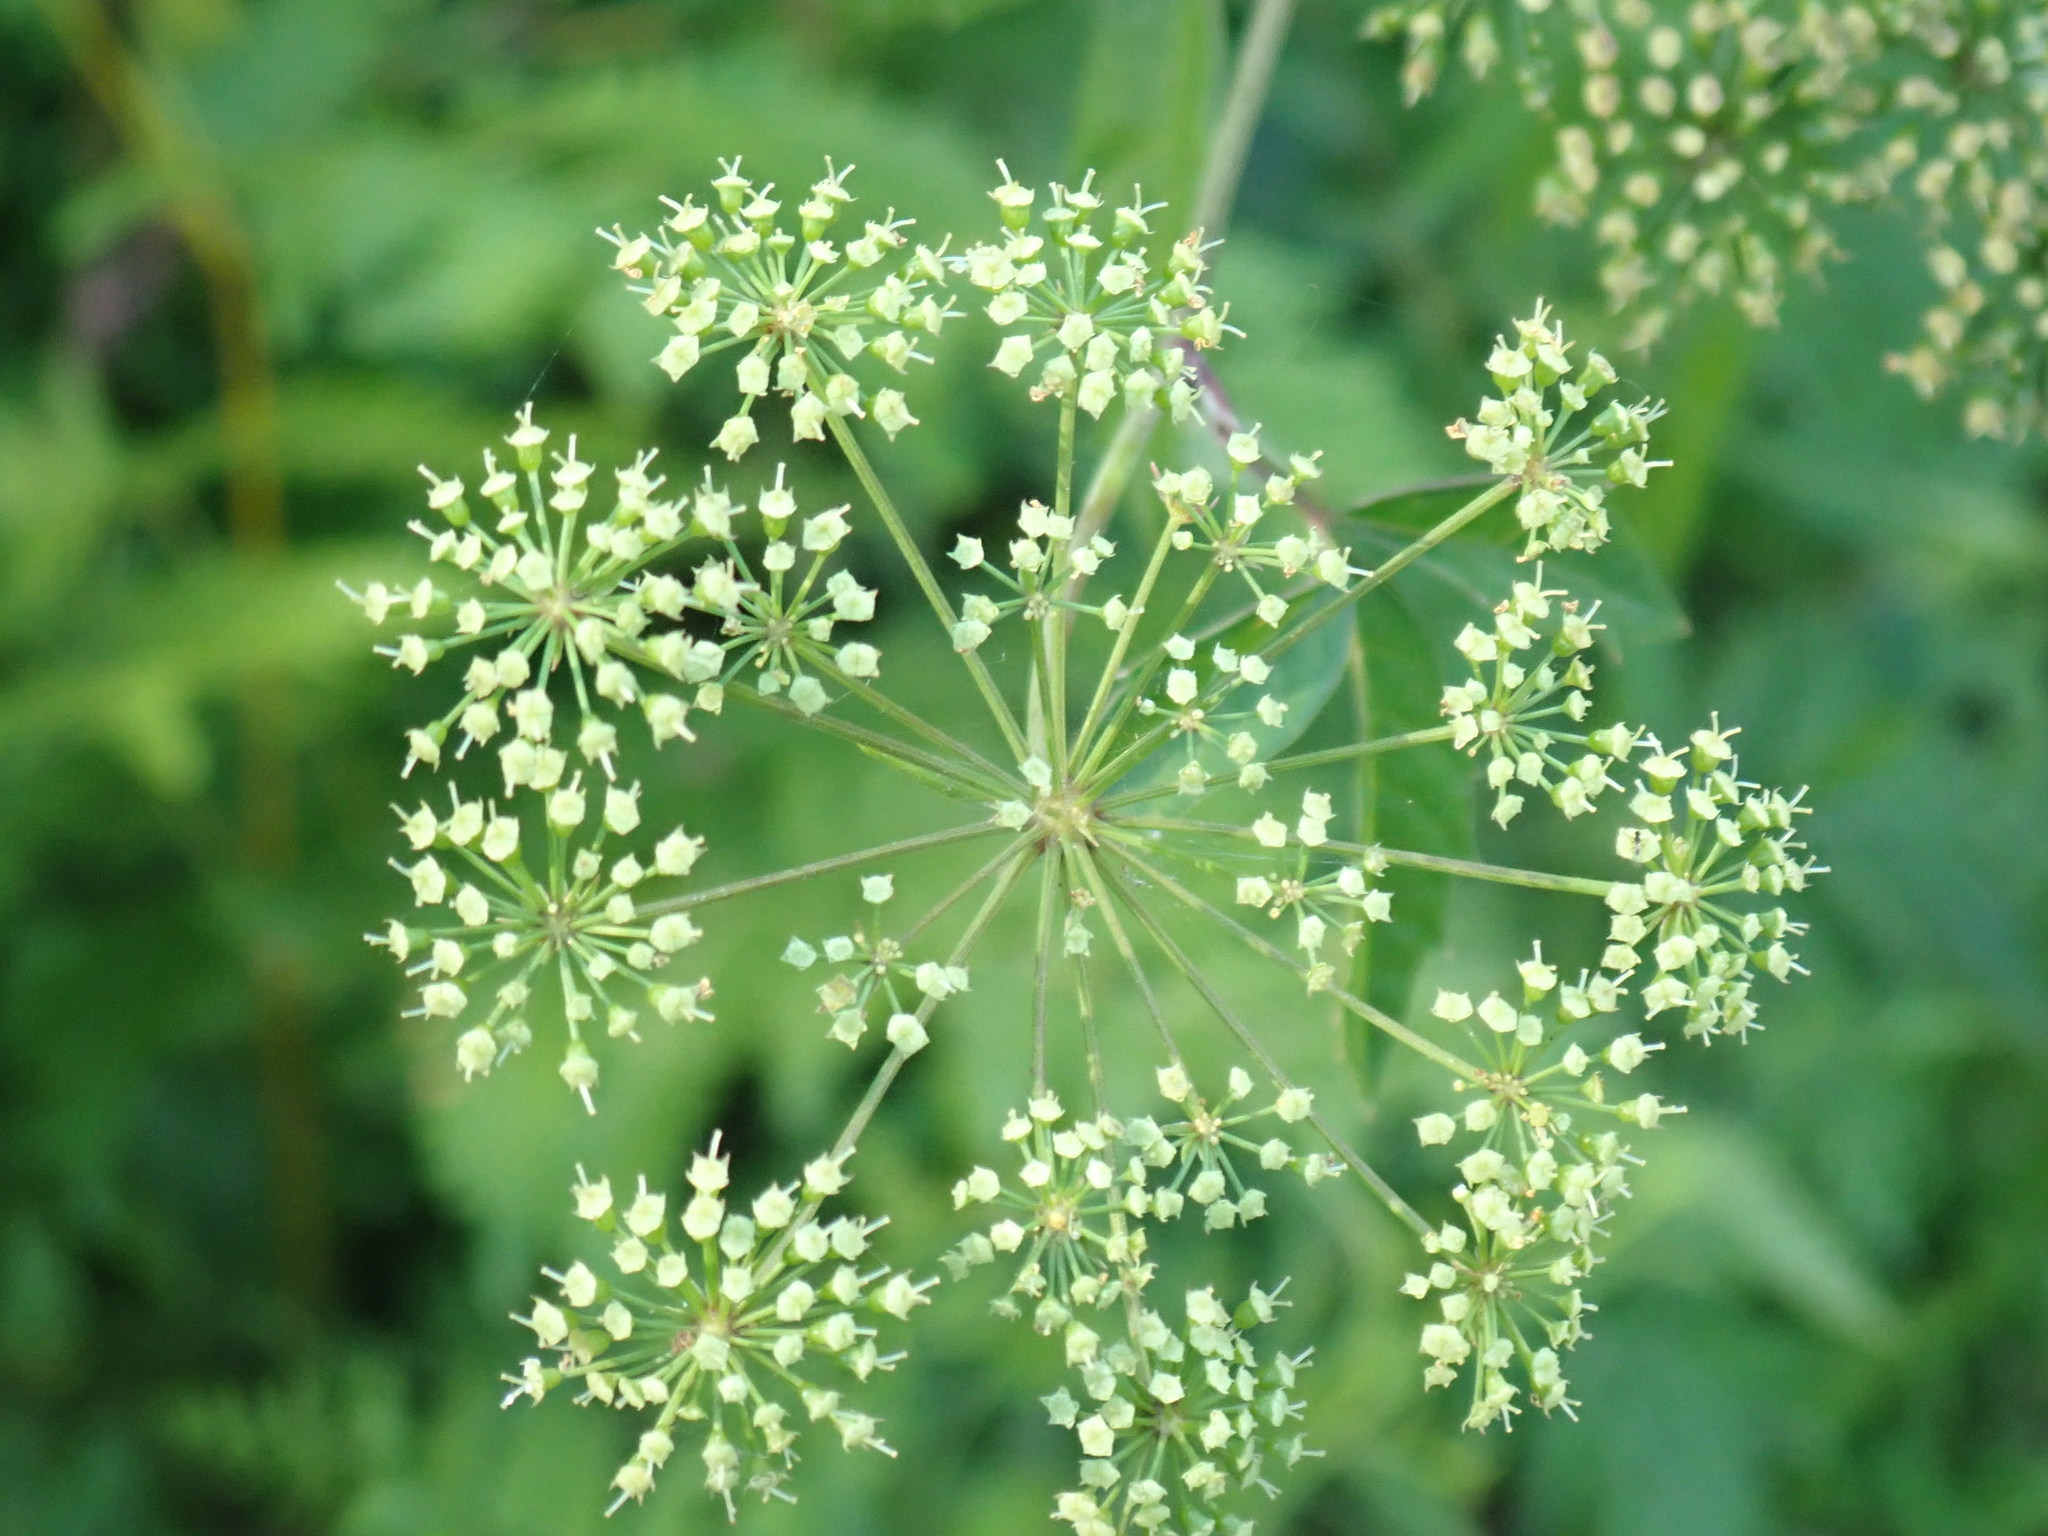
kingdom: Plantae
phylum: Tracheophyta
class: Magnoliopsida
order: Apiales
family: Apiaceae
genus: Cicuta
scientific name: Cicuta maculata
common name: Spotted cowbane
